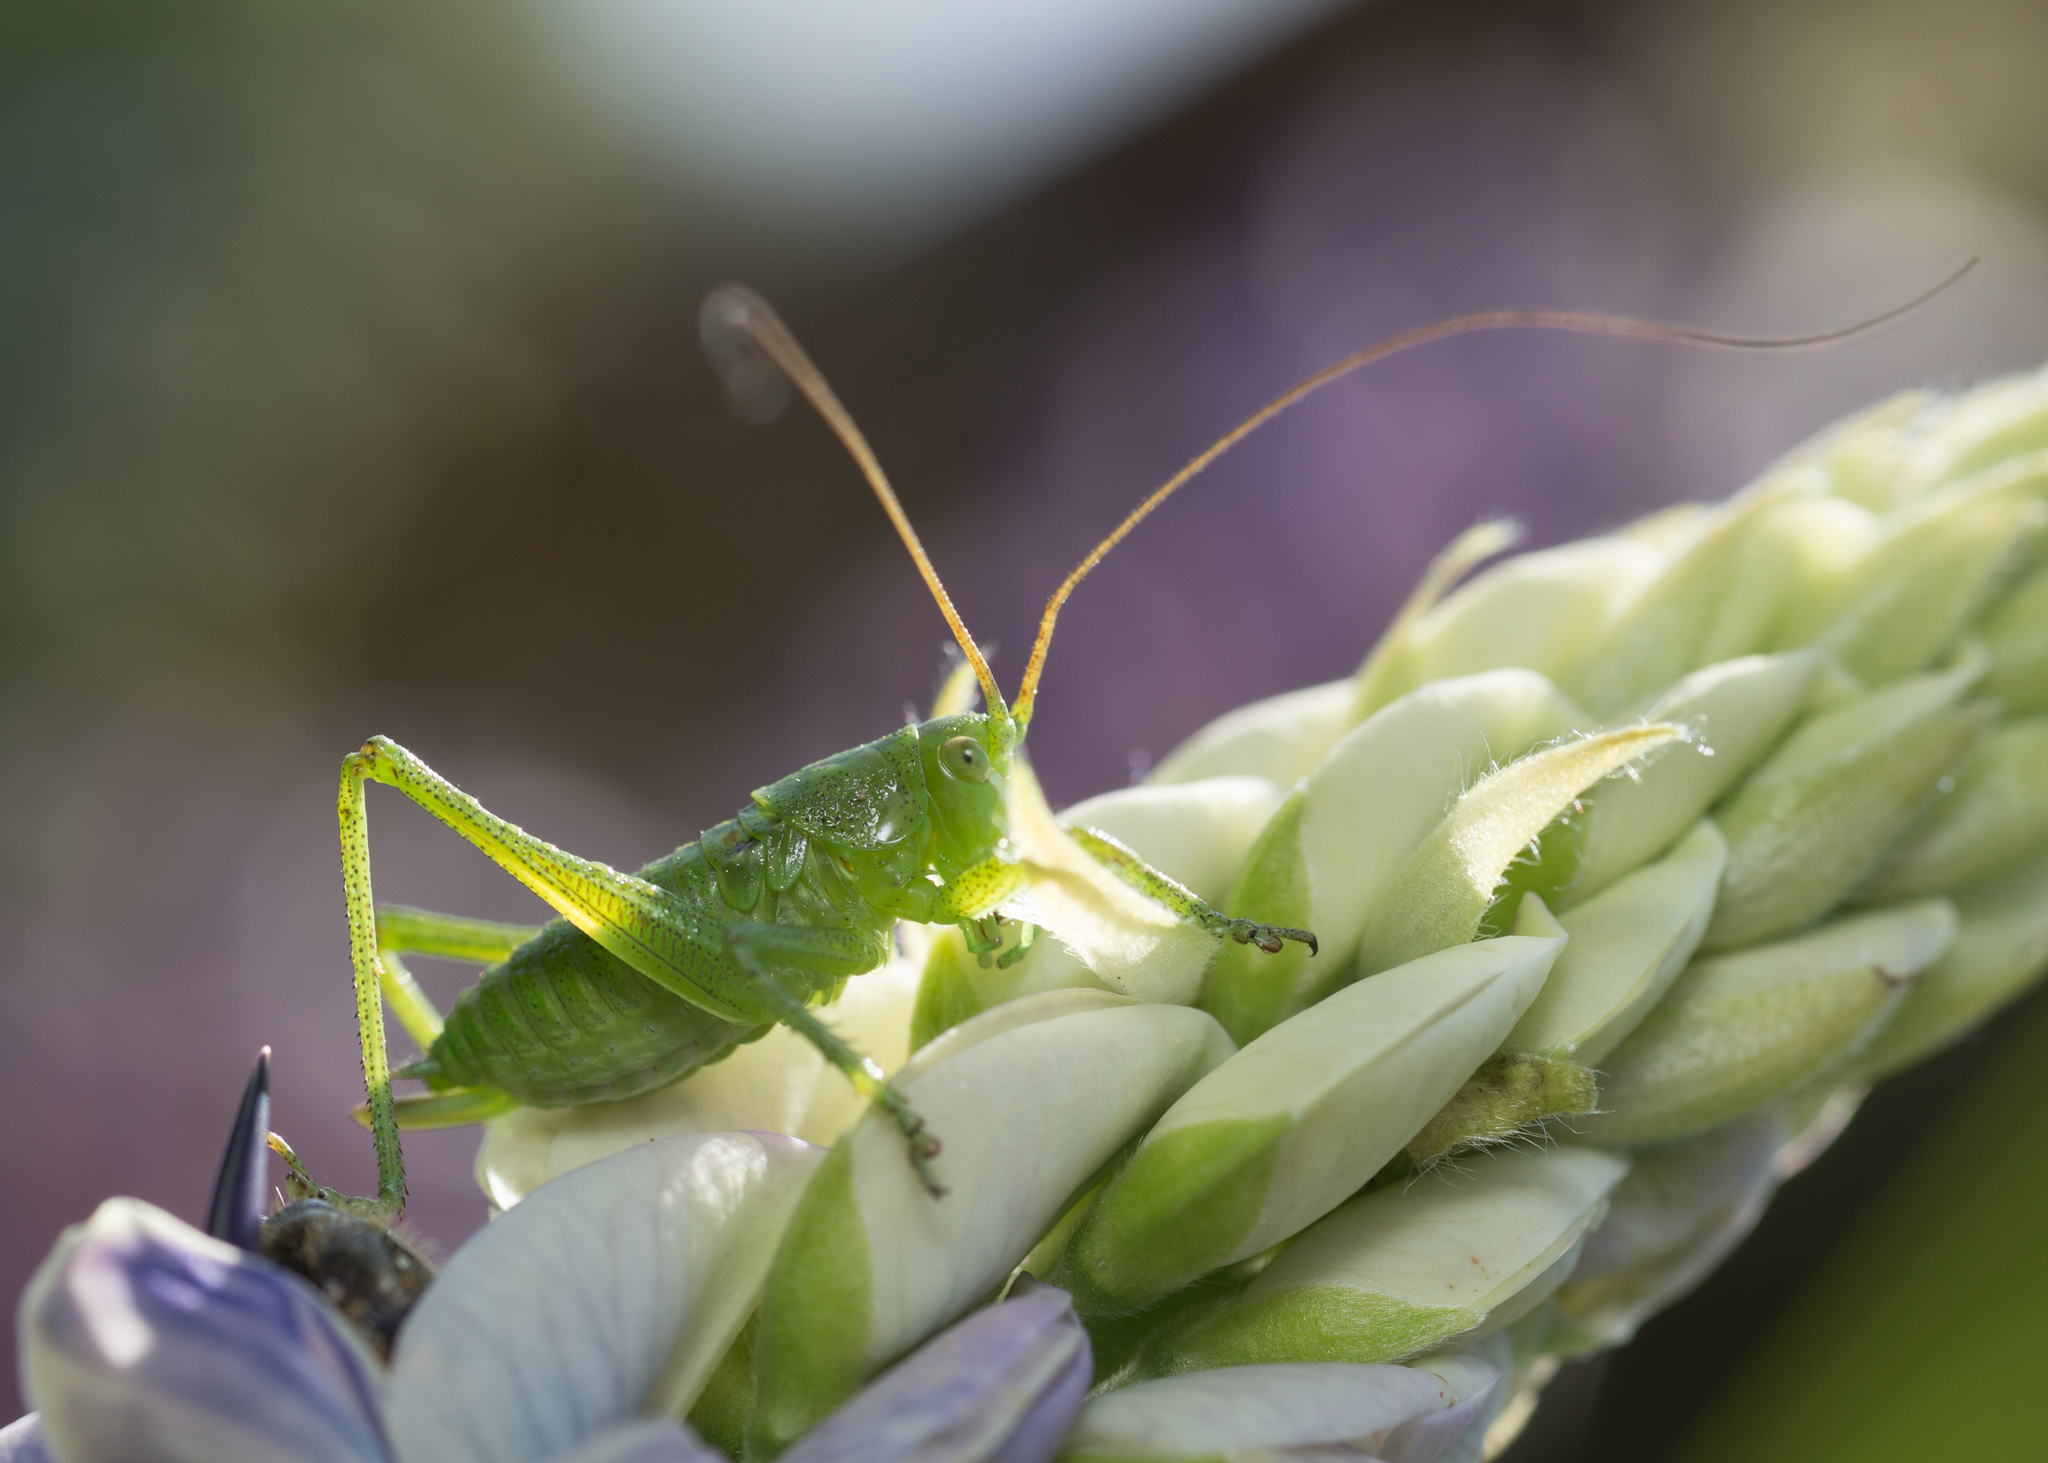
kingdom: Animalia
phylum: Arthropoda
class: Insecta
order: Orthoptera
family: Tettigoniidae
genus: Tettigonia
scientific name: Tettigonia cantans
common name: Upland green bush-cricket
